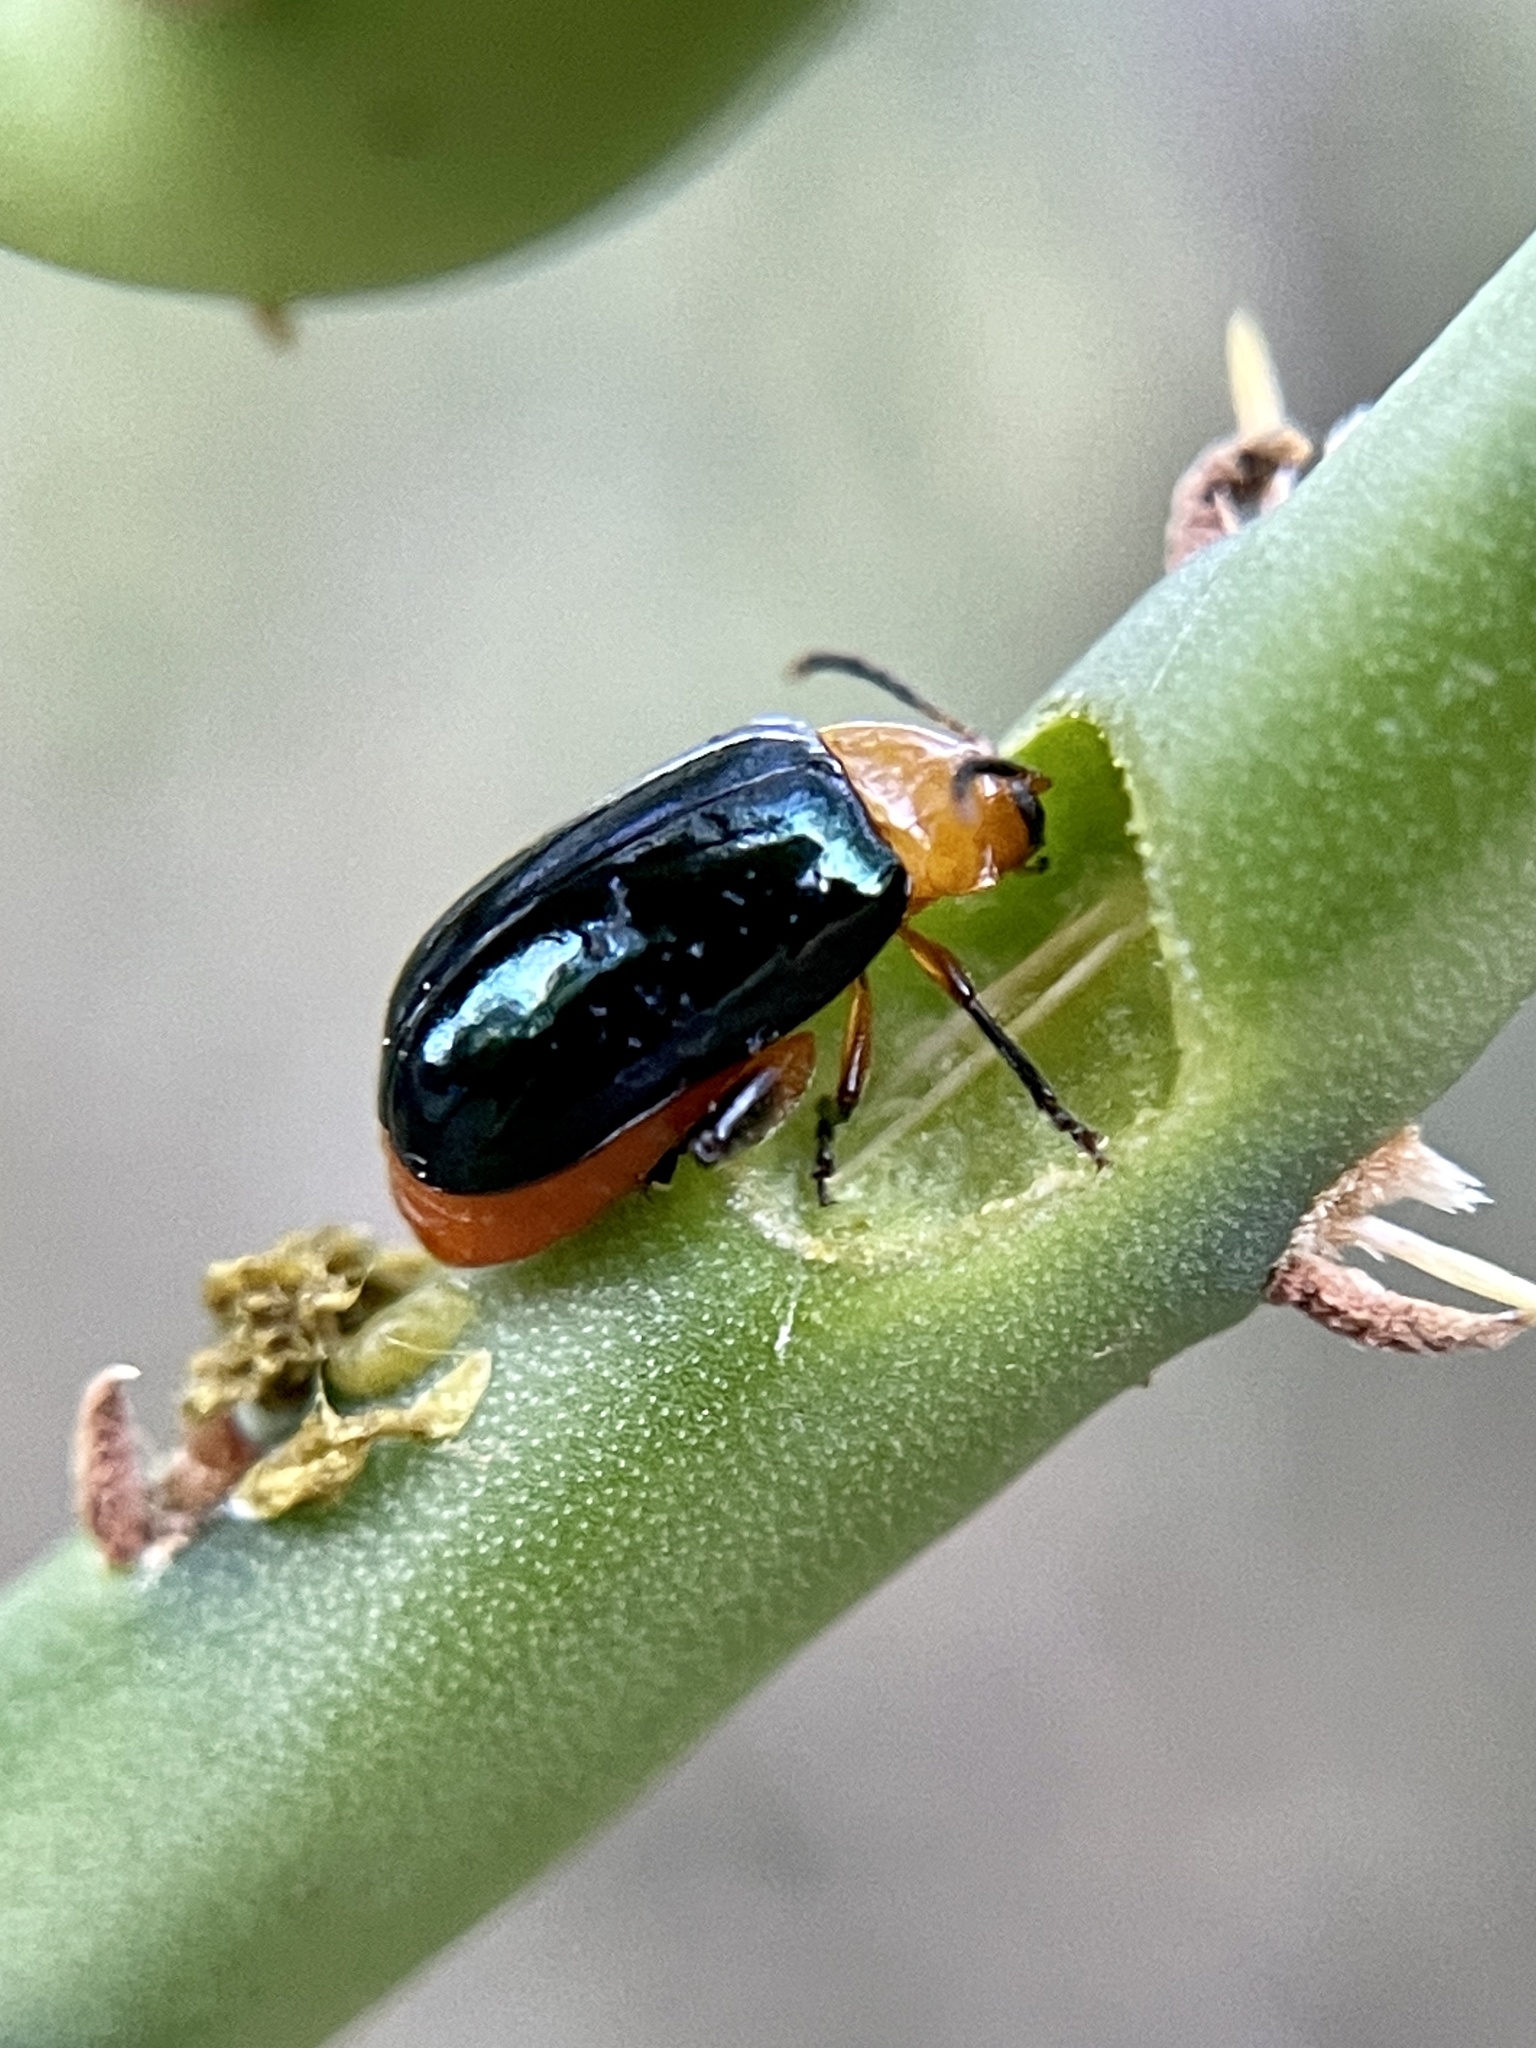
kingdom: Animalia
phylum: Arthropoda
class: Insecta
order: Coleoptera
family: Chrysomelidae
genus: Asphaera
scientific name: Asphaera lustrans
